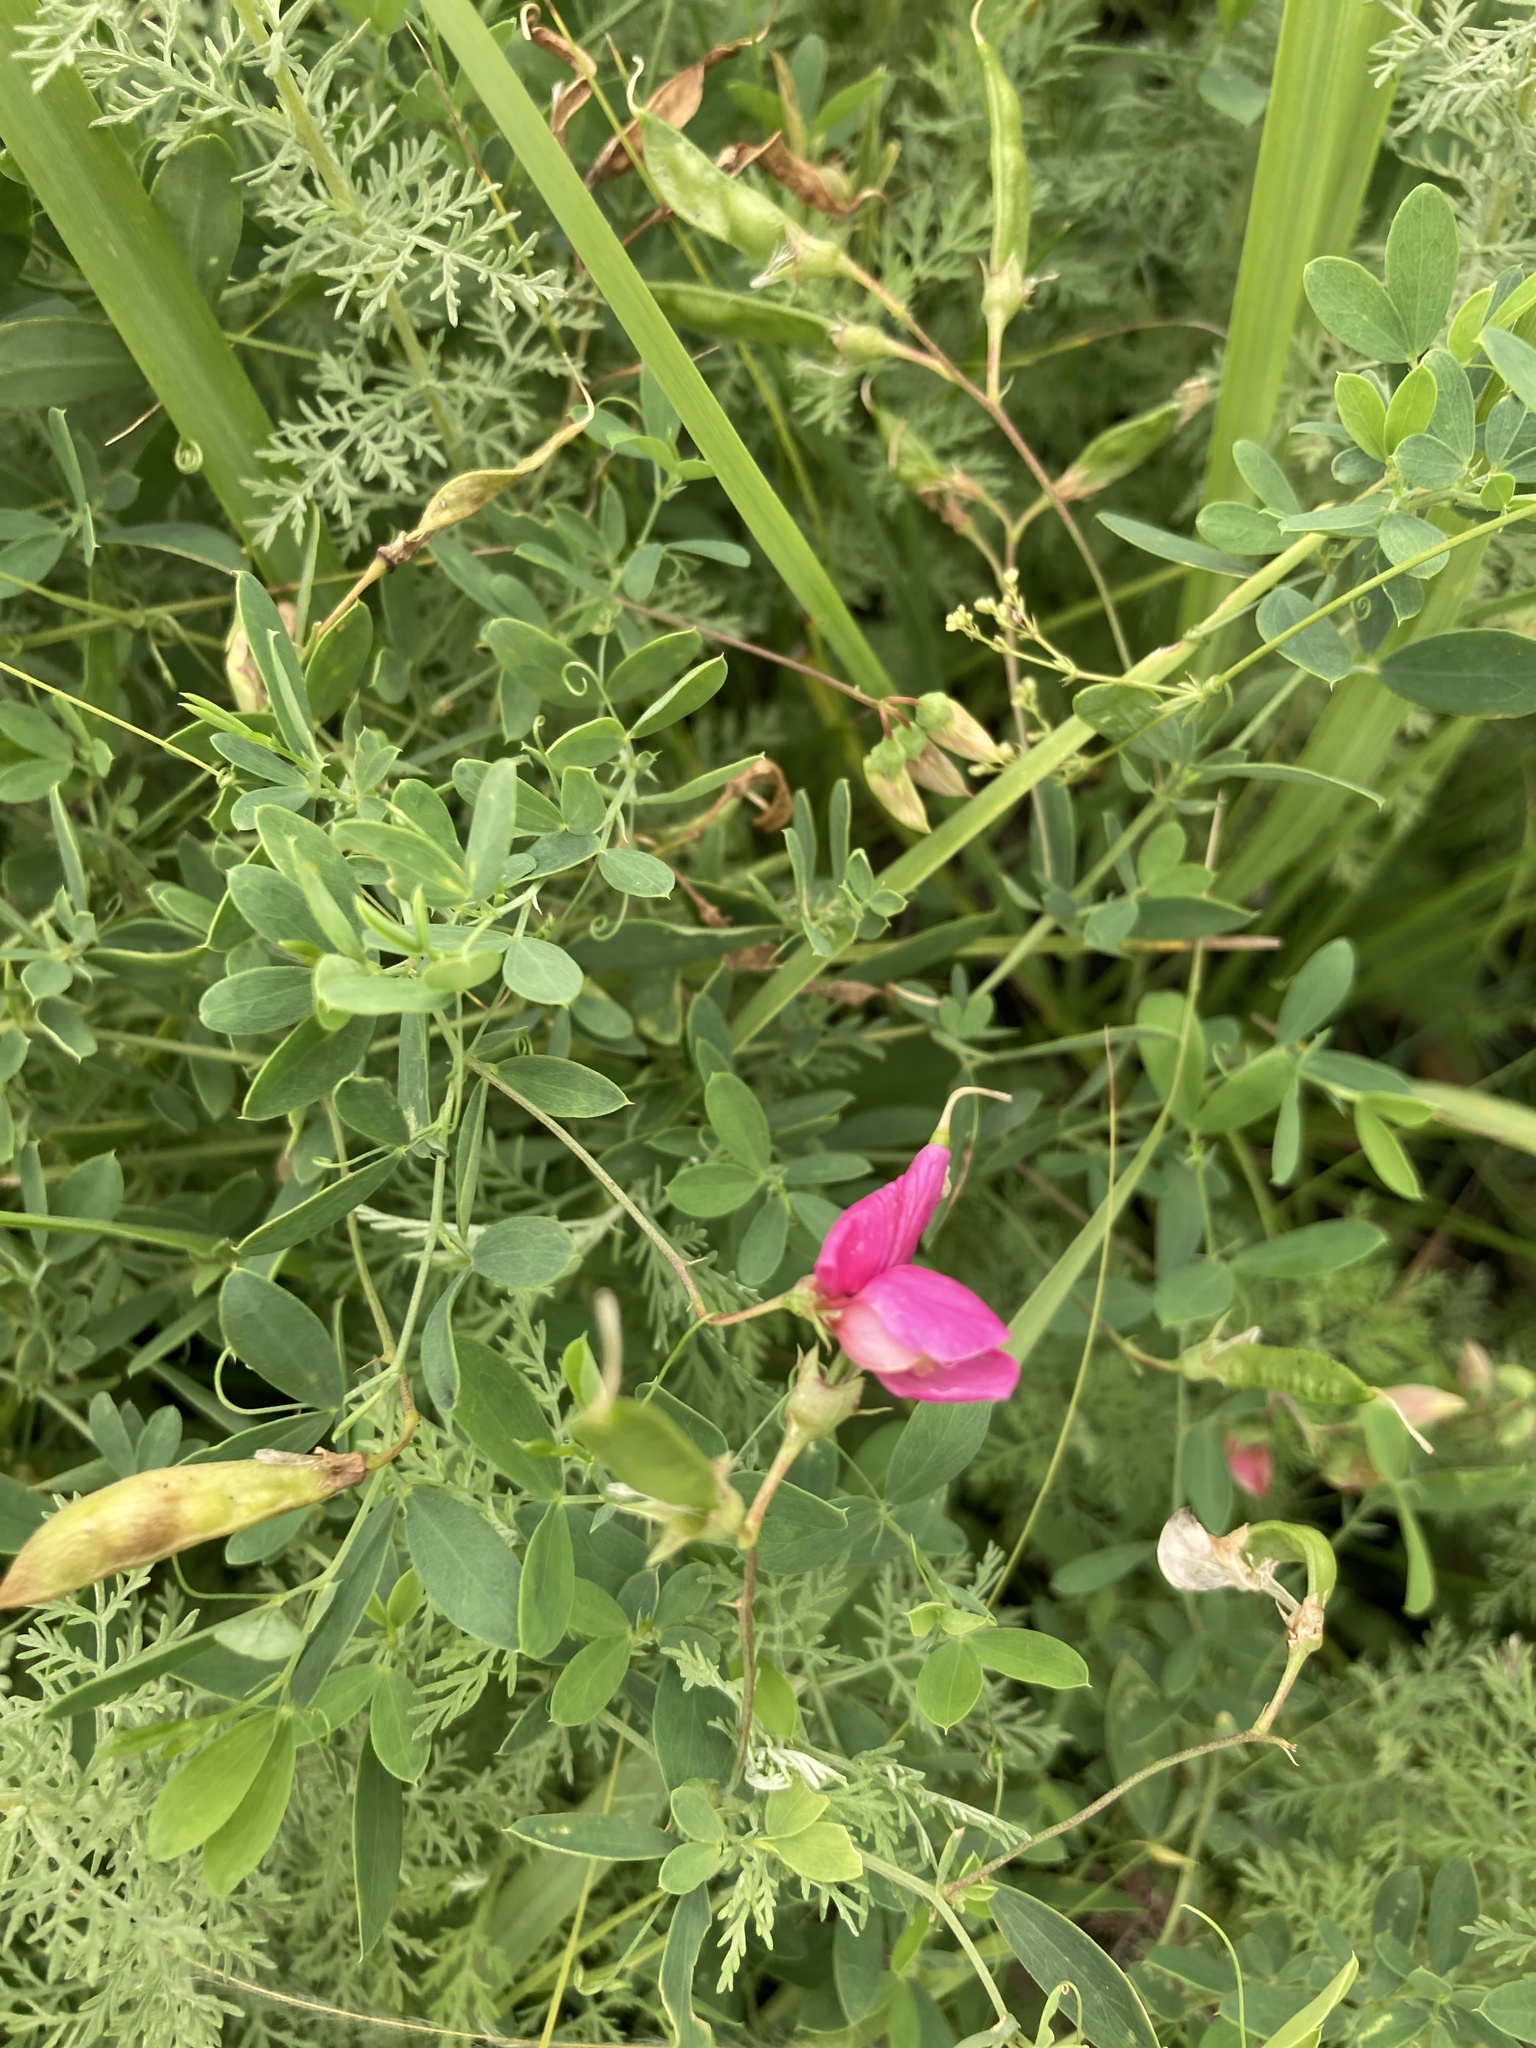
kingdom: Plantae
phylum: Tracheophyta
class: Magnoliopsida
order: Fabales
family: Fabaceae
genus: Lathyrus
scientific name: Lathyrus tuberosus
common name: Tuberous pea
